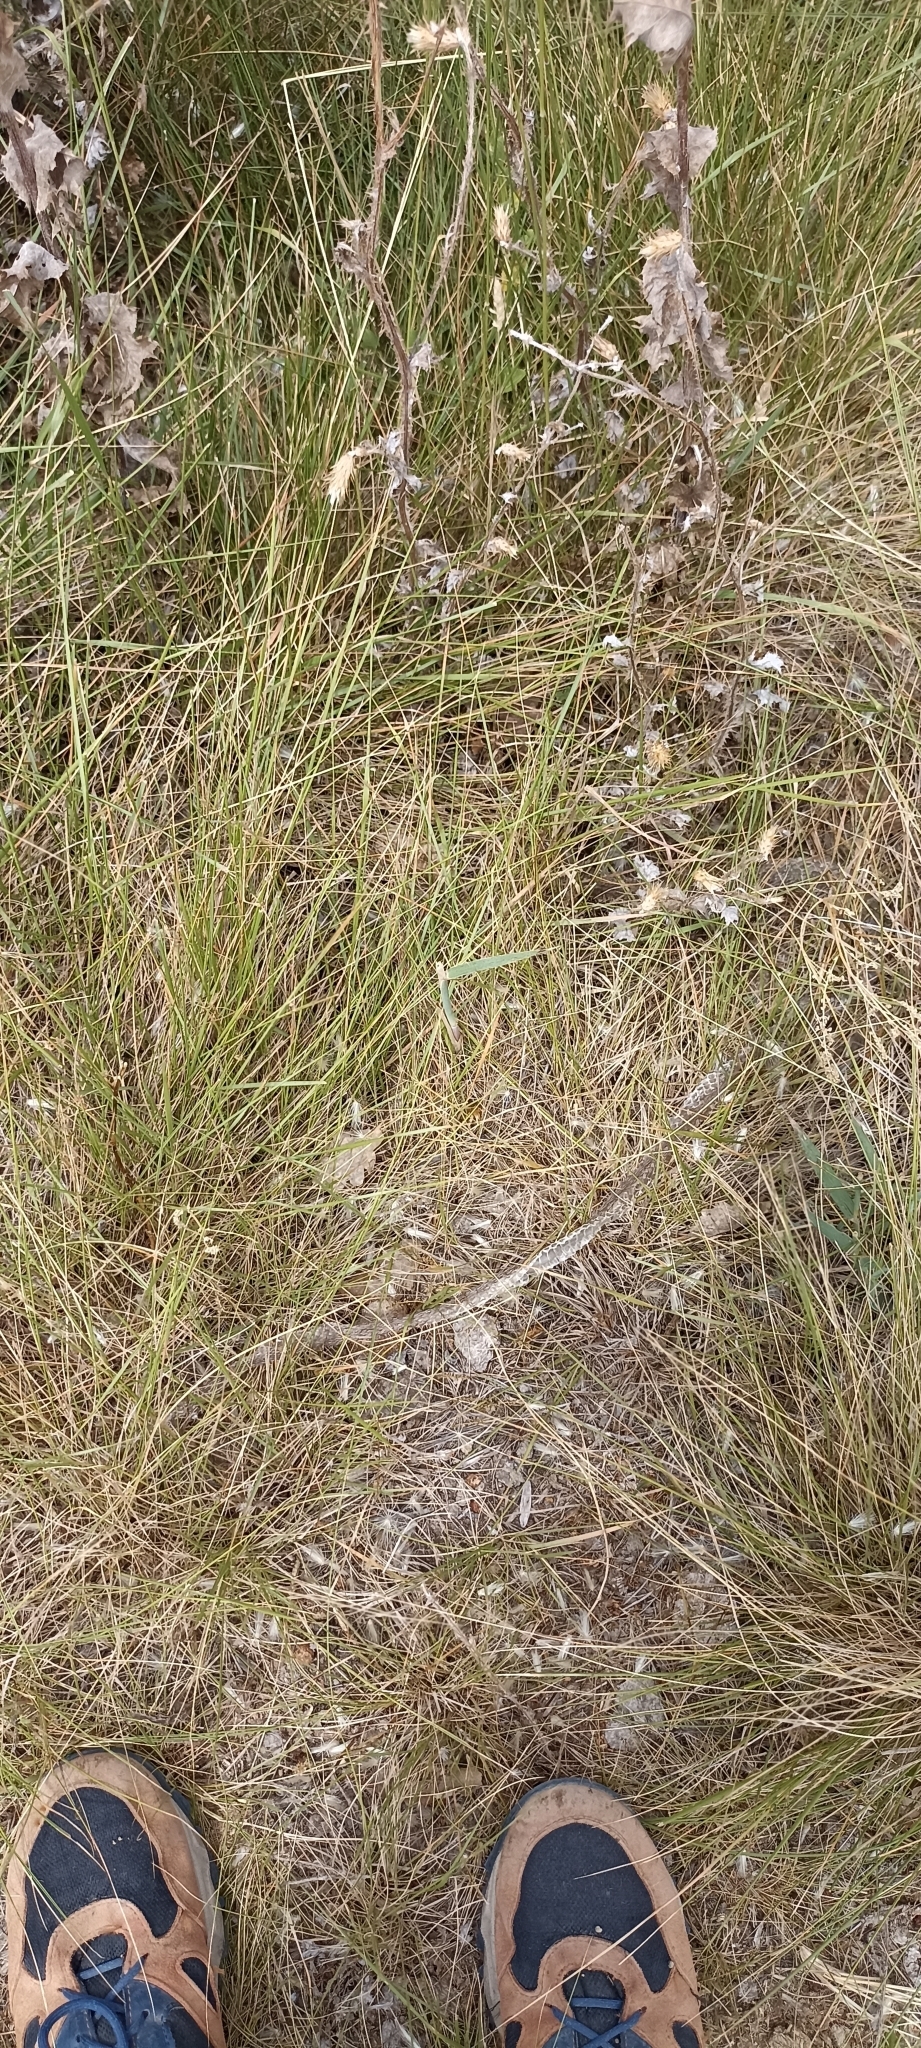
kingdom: Animalia
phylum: Chordata
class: Squamata
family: Psammophiidae
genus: Malpolon
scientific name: Malpolon monspessulanus
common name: Montpellier snake
